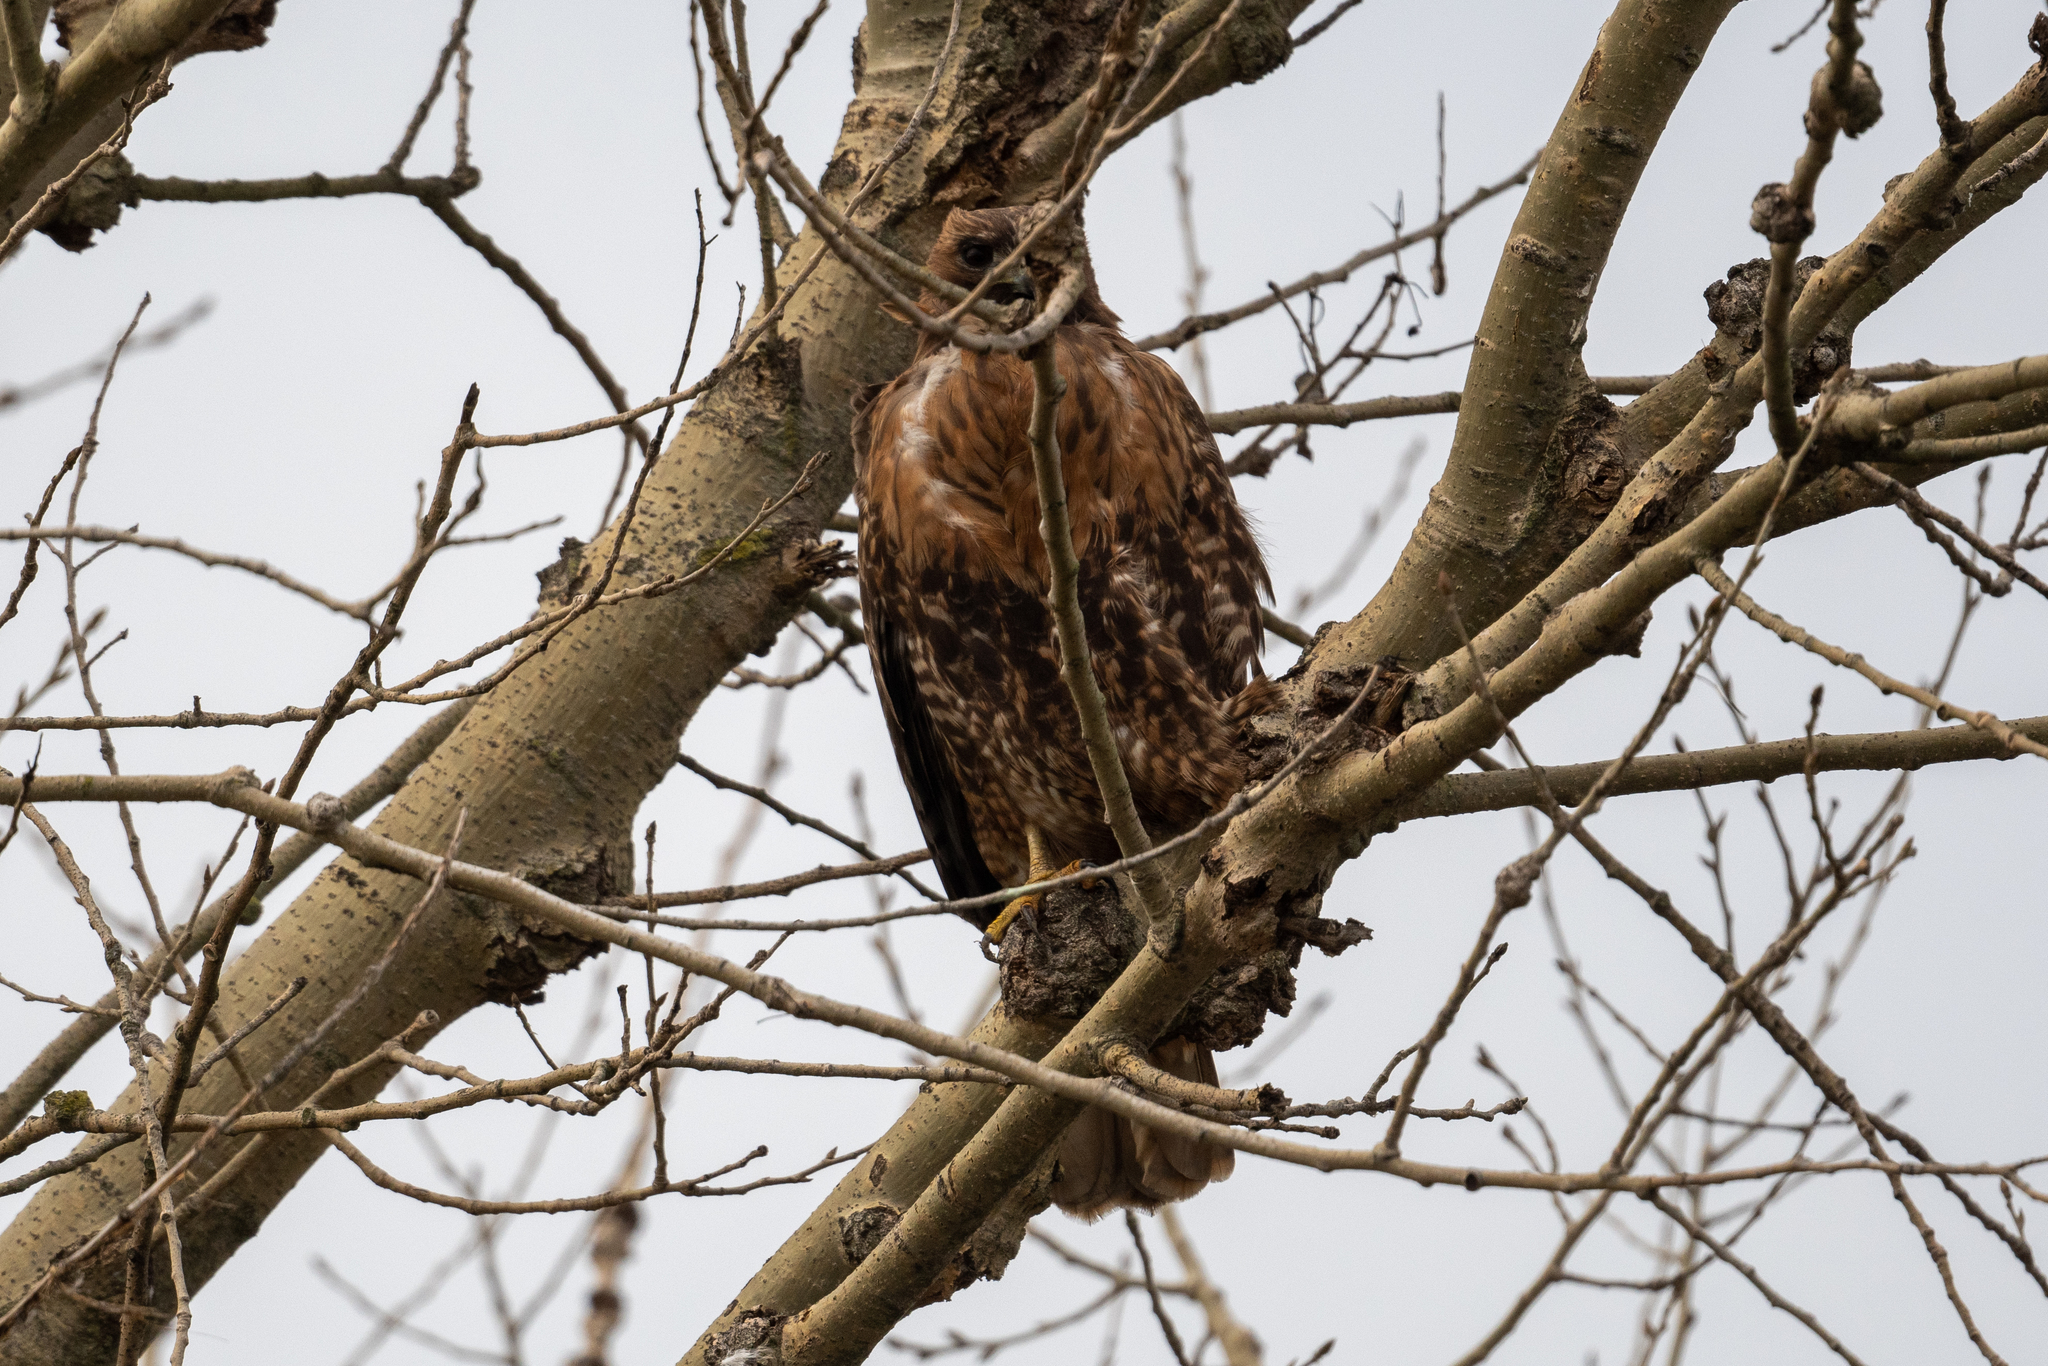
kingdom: Animalia
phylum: Chordata
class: Aves
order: Accipitriformes
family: Accipitridae
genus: Buteo
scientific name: Buteo jamaicensis
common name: Red-tailed hawk
